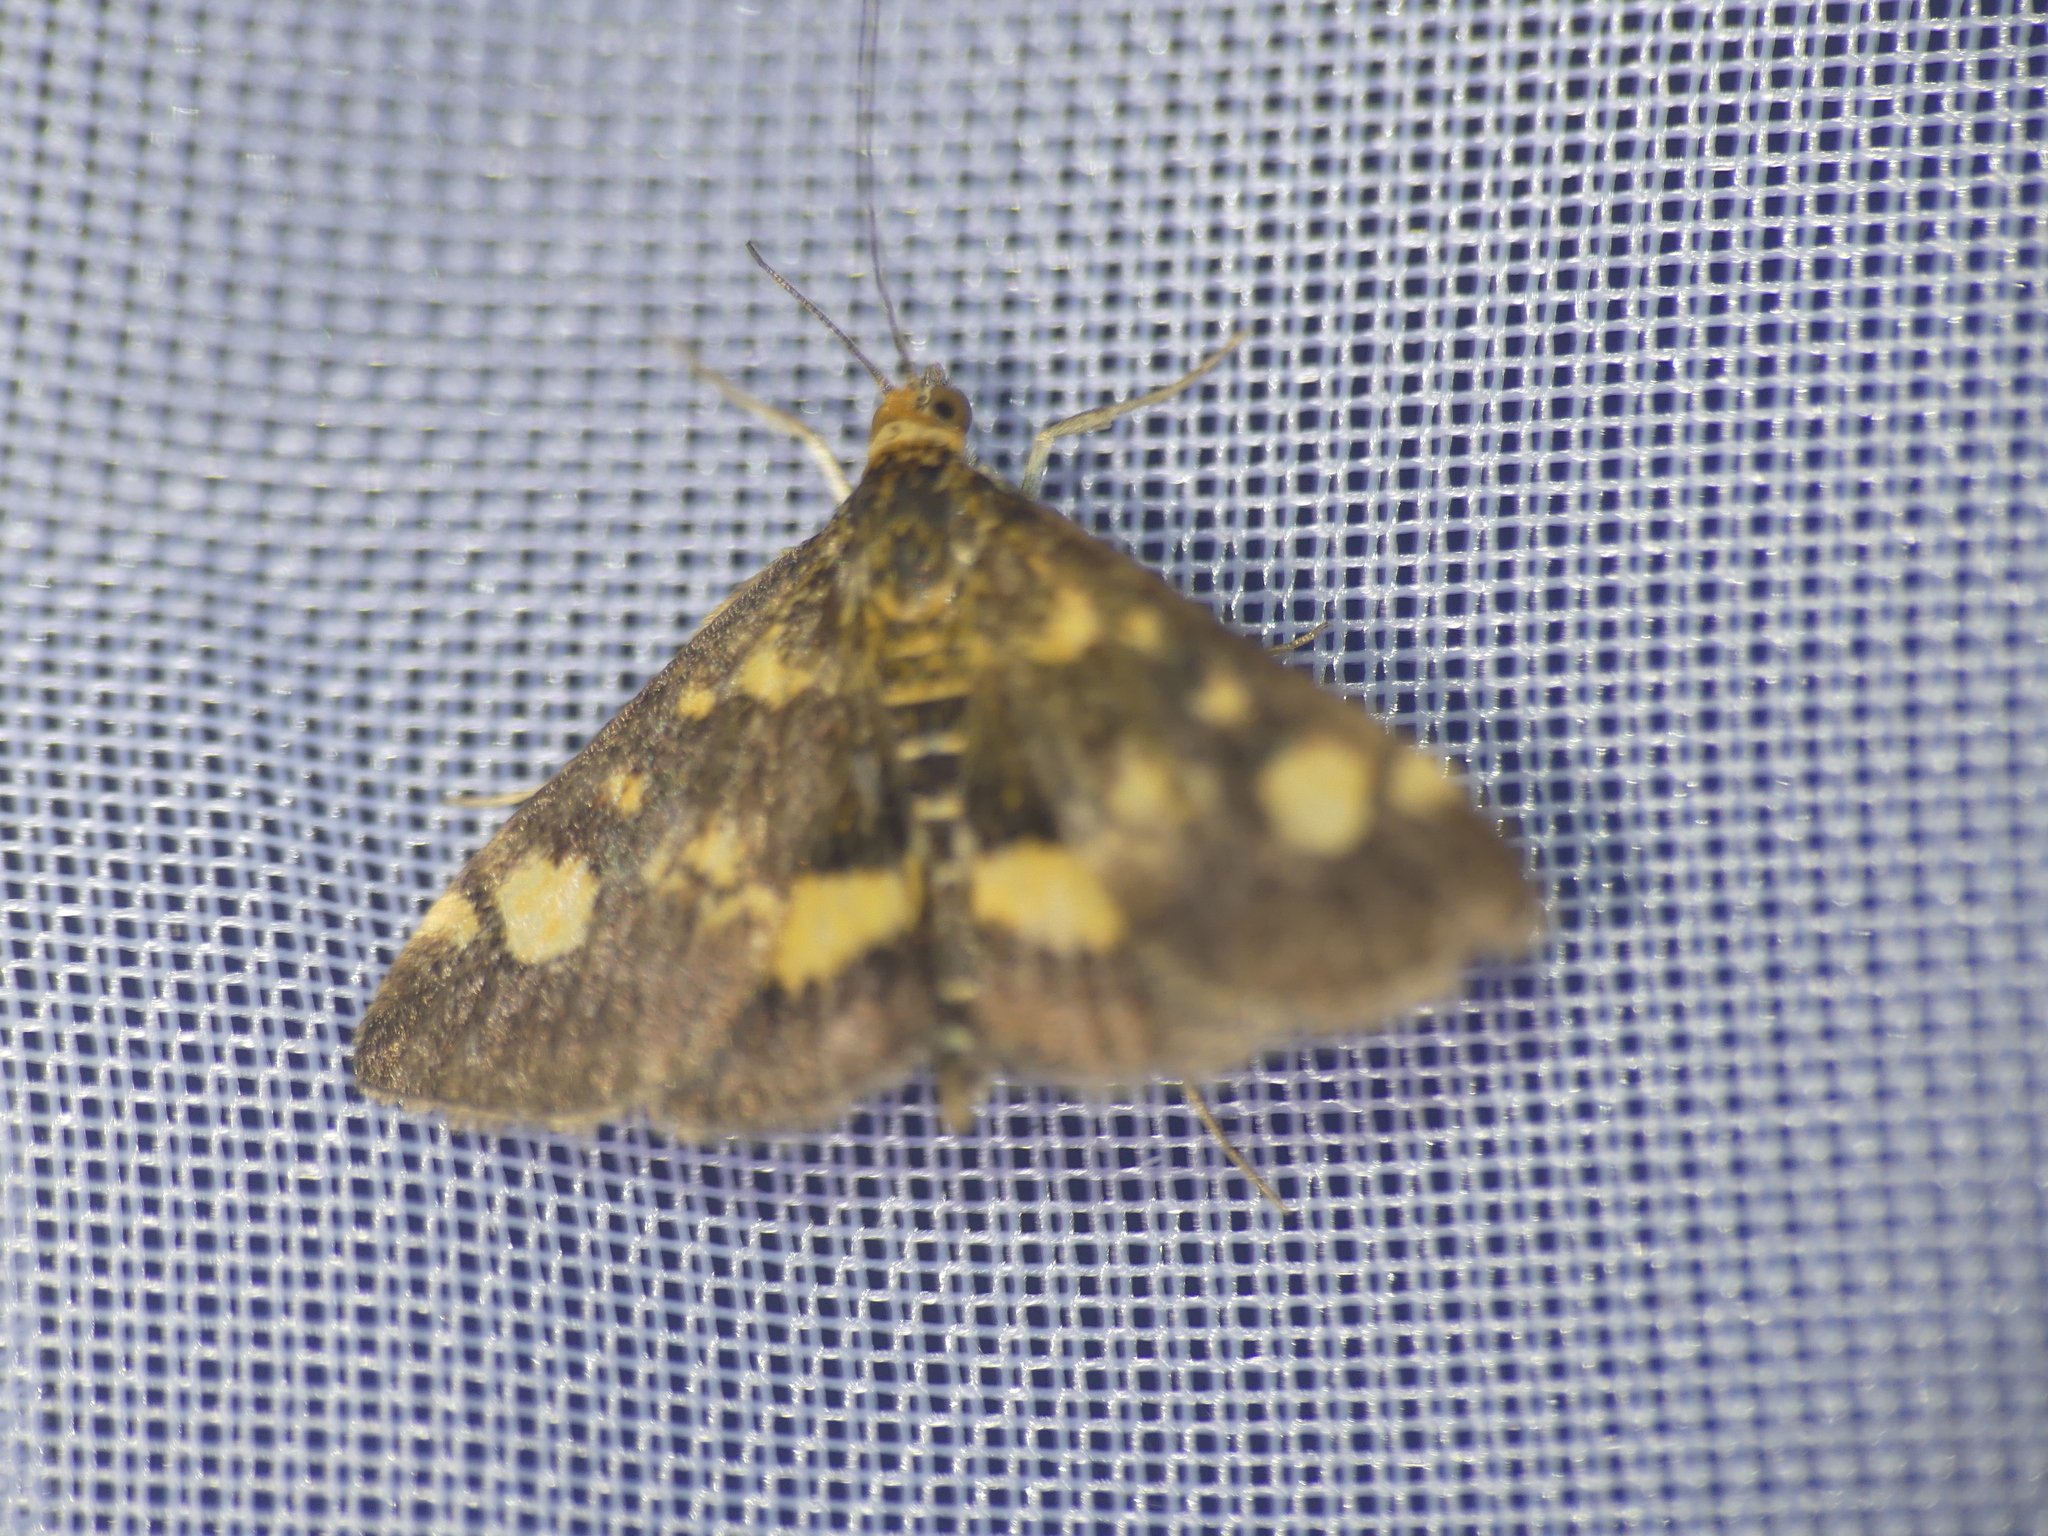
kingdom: Animalia
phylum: Arthropoda
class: Insecta
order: Lepidoptera
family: Crambidae
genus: Pyrausta
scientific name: Pyrausta aurata
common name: Small purple & gold
